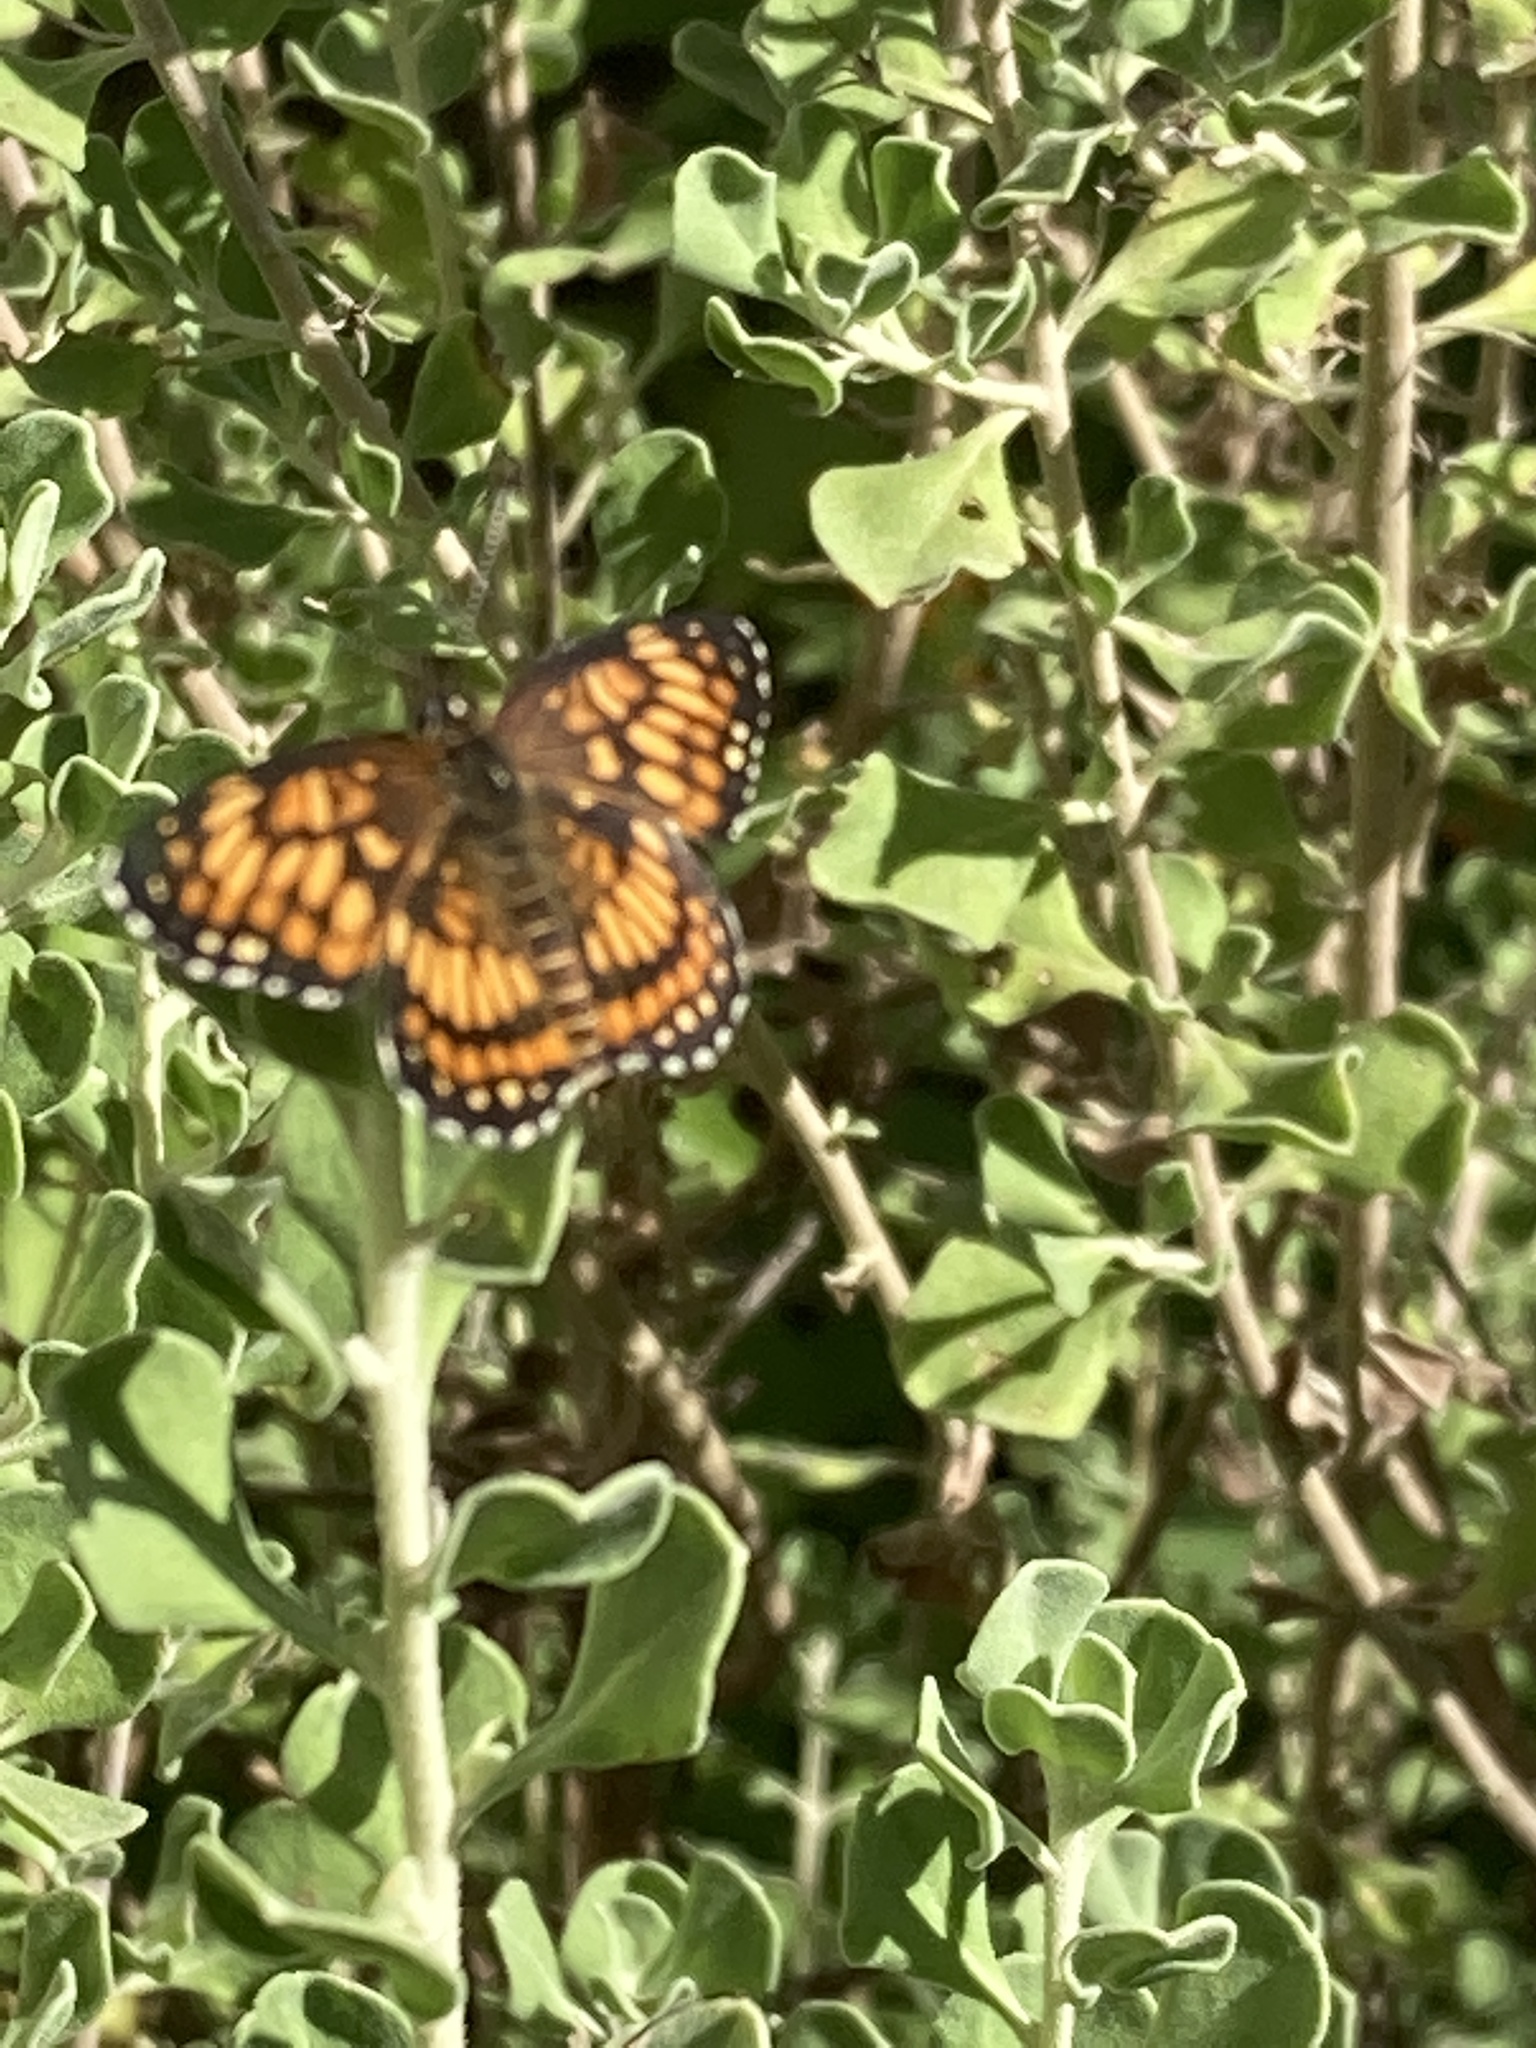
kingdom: Animalia
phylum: Arthropoda
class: Insecta
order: Lepidoptera
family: Nymphalidae
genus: Thessalia
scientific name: Thessalia theona
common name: Nymphalid moth
